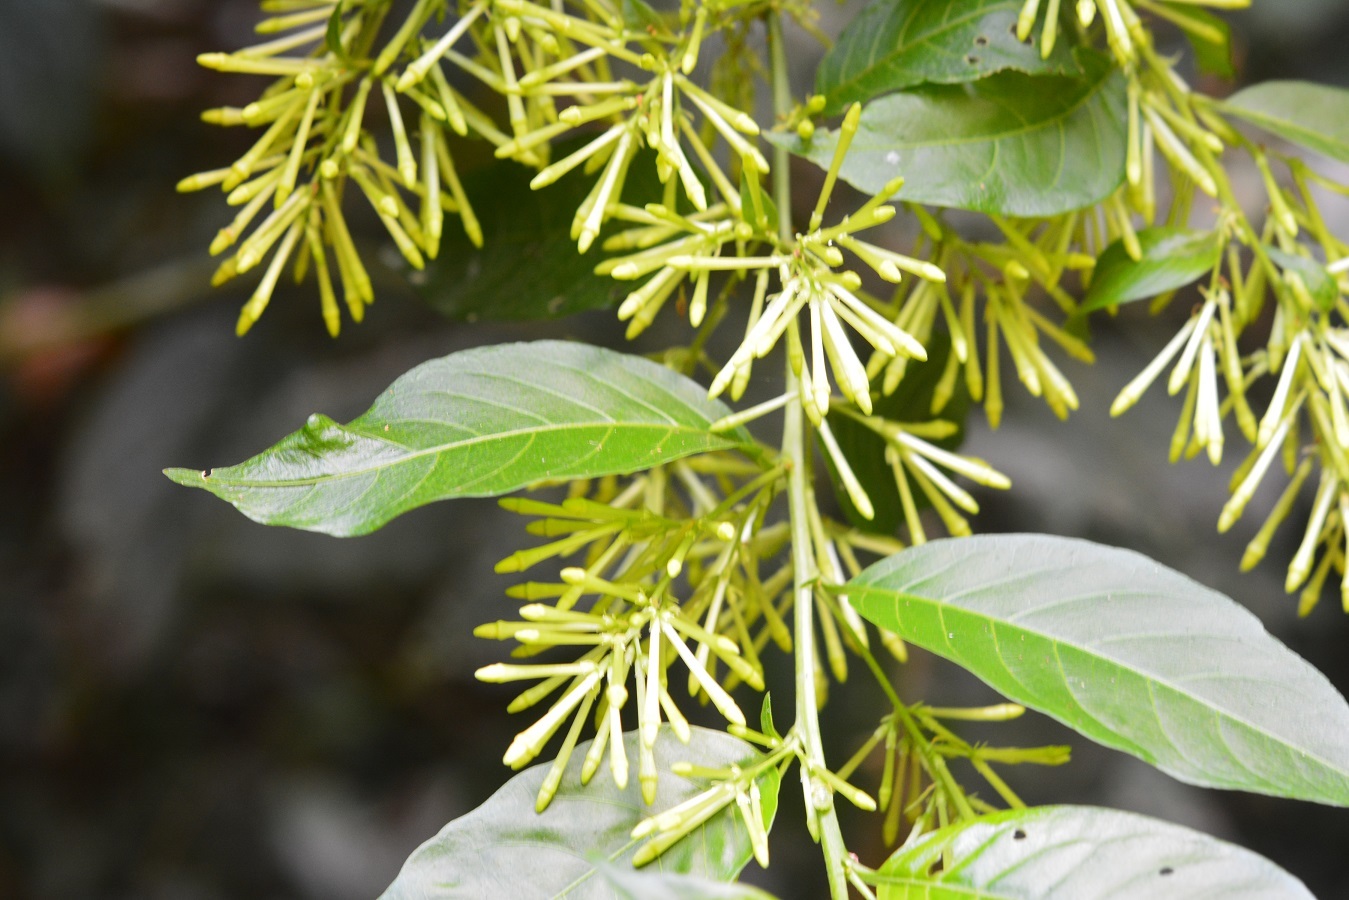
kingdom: Plantae
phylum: Tracheophyta
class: Magnoliopsida
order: Solanales
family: Solanaceae
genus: Cestrum
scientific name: Cestrum racemosum
